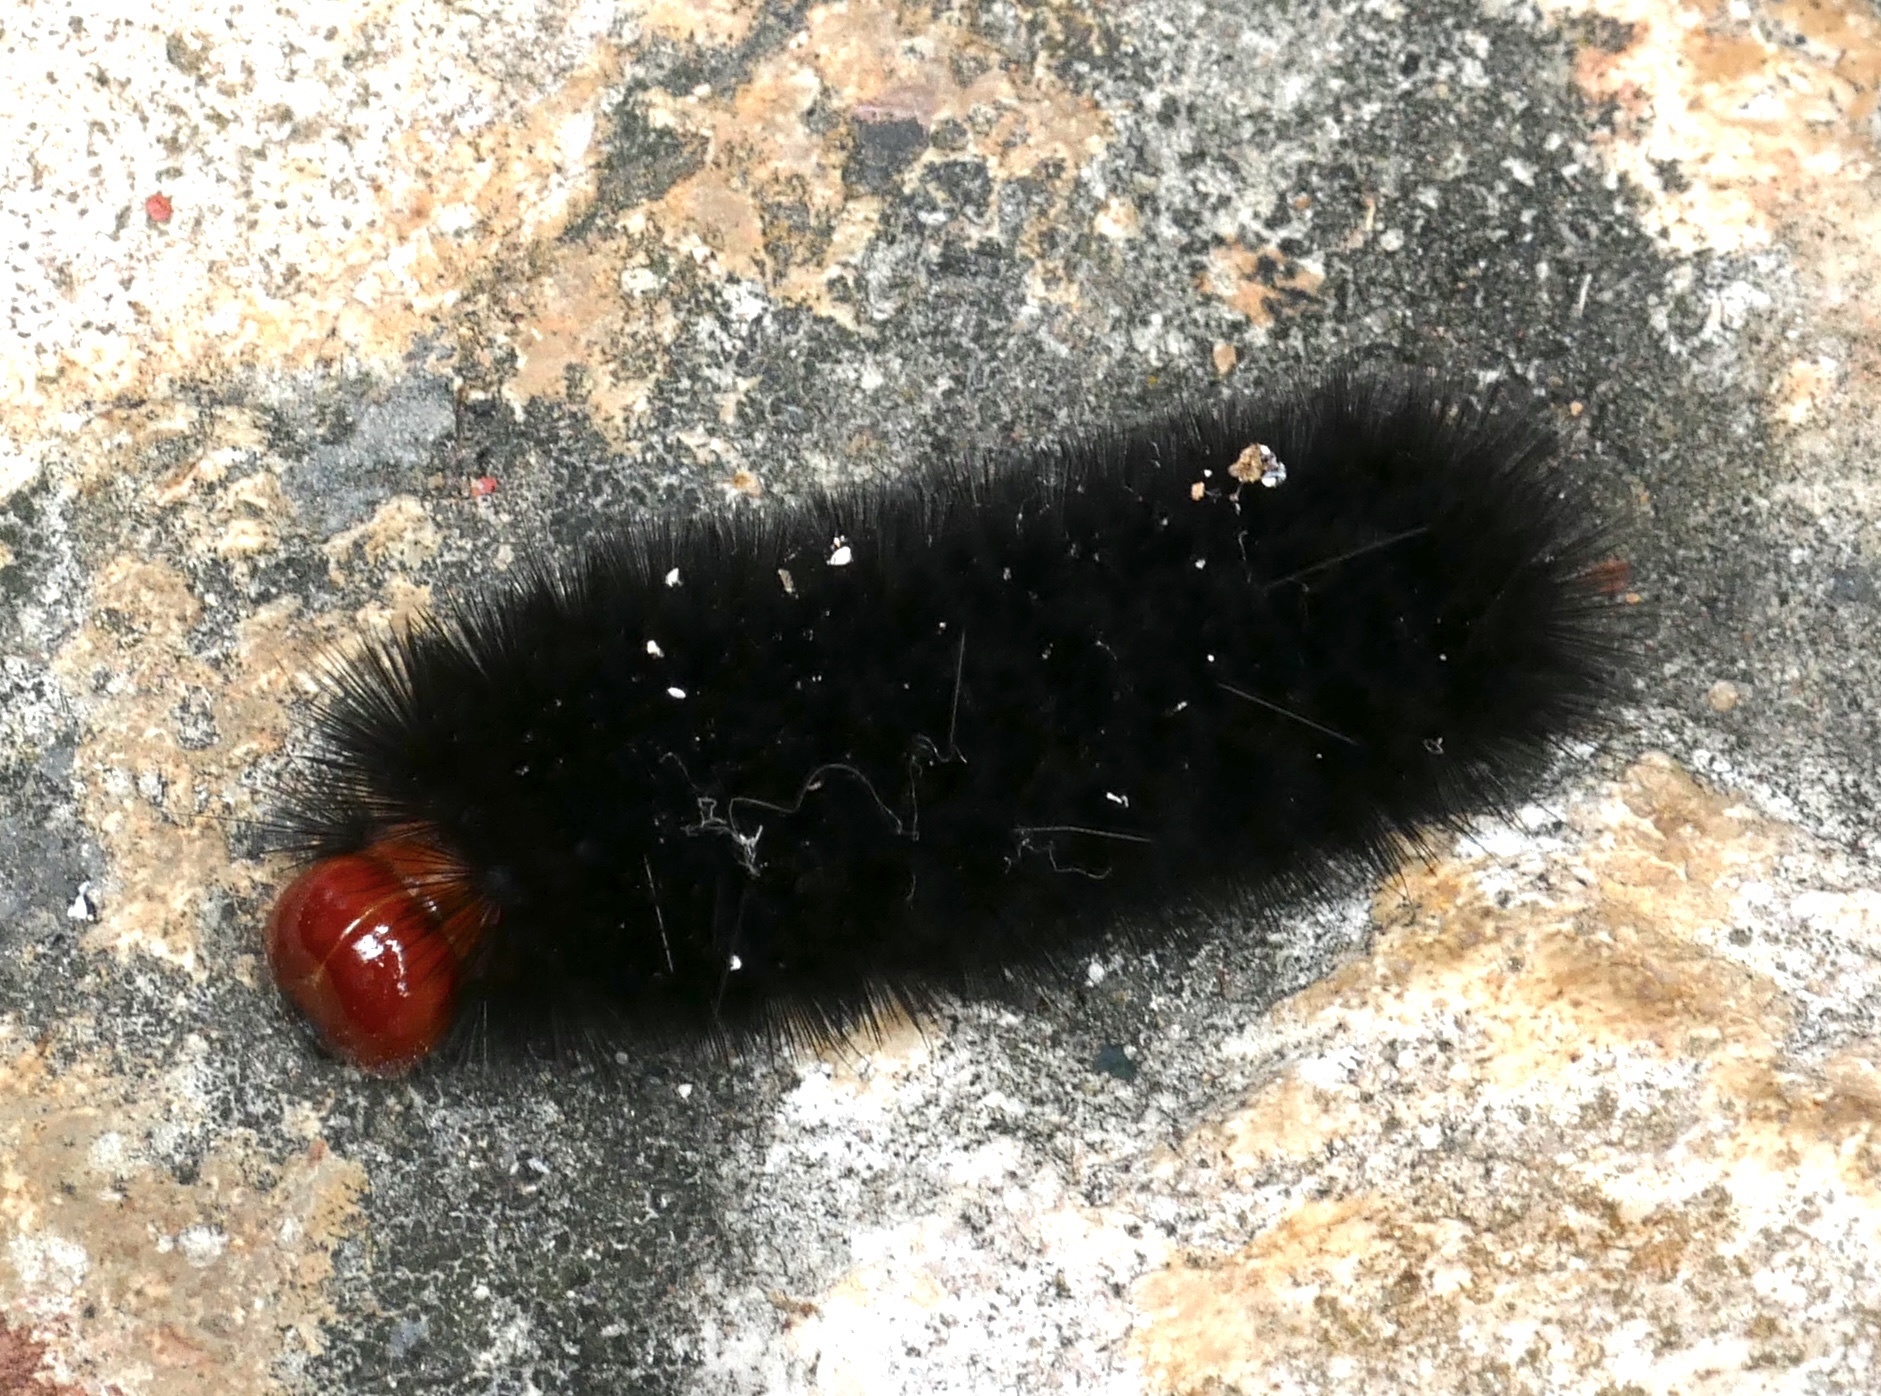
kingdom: Animalia
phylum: Arthropoda
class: Insecta
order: Lepidoptera
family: Erebidae
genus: Ammalo
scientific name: Ammalo helops
